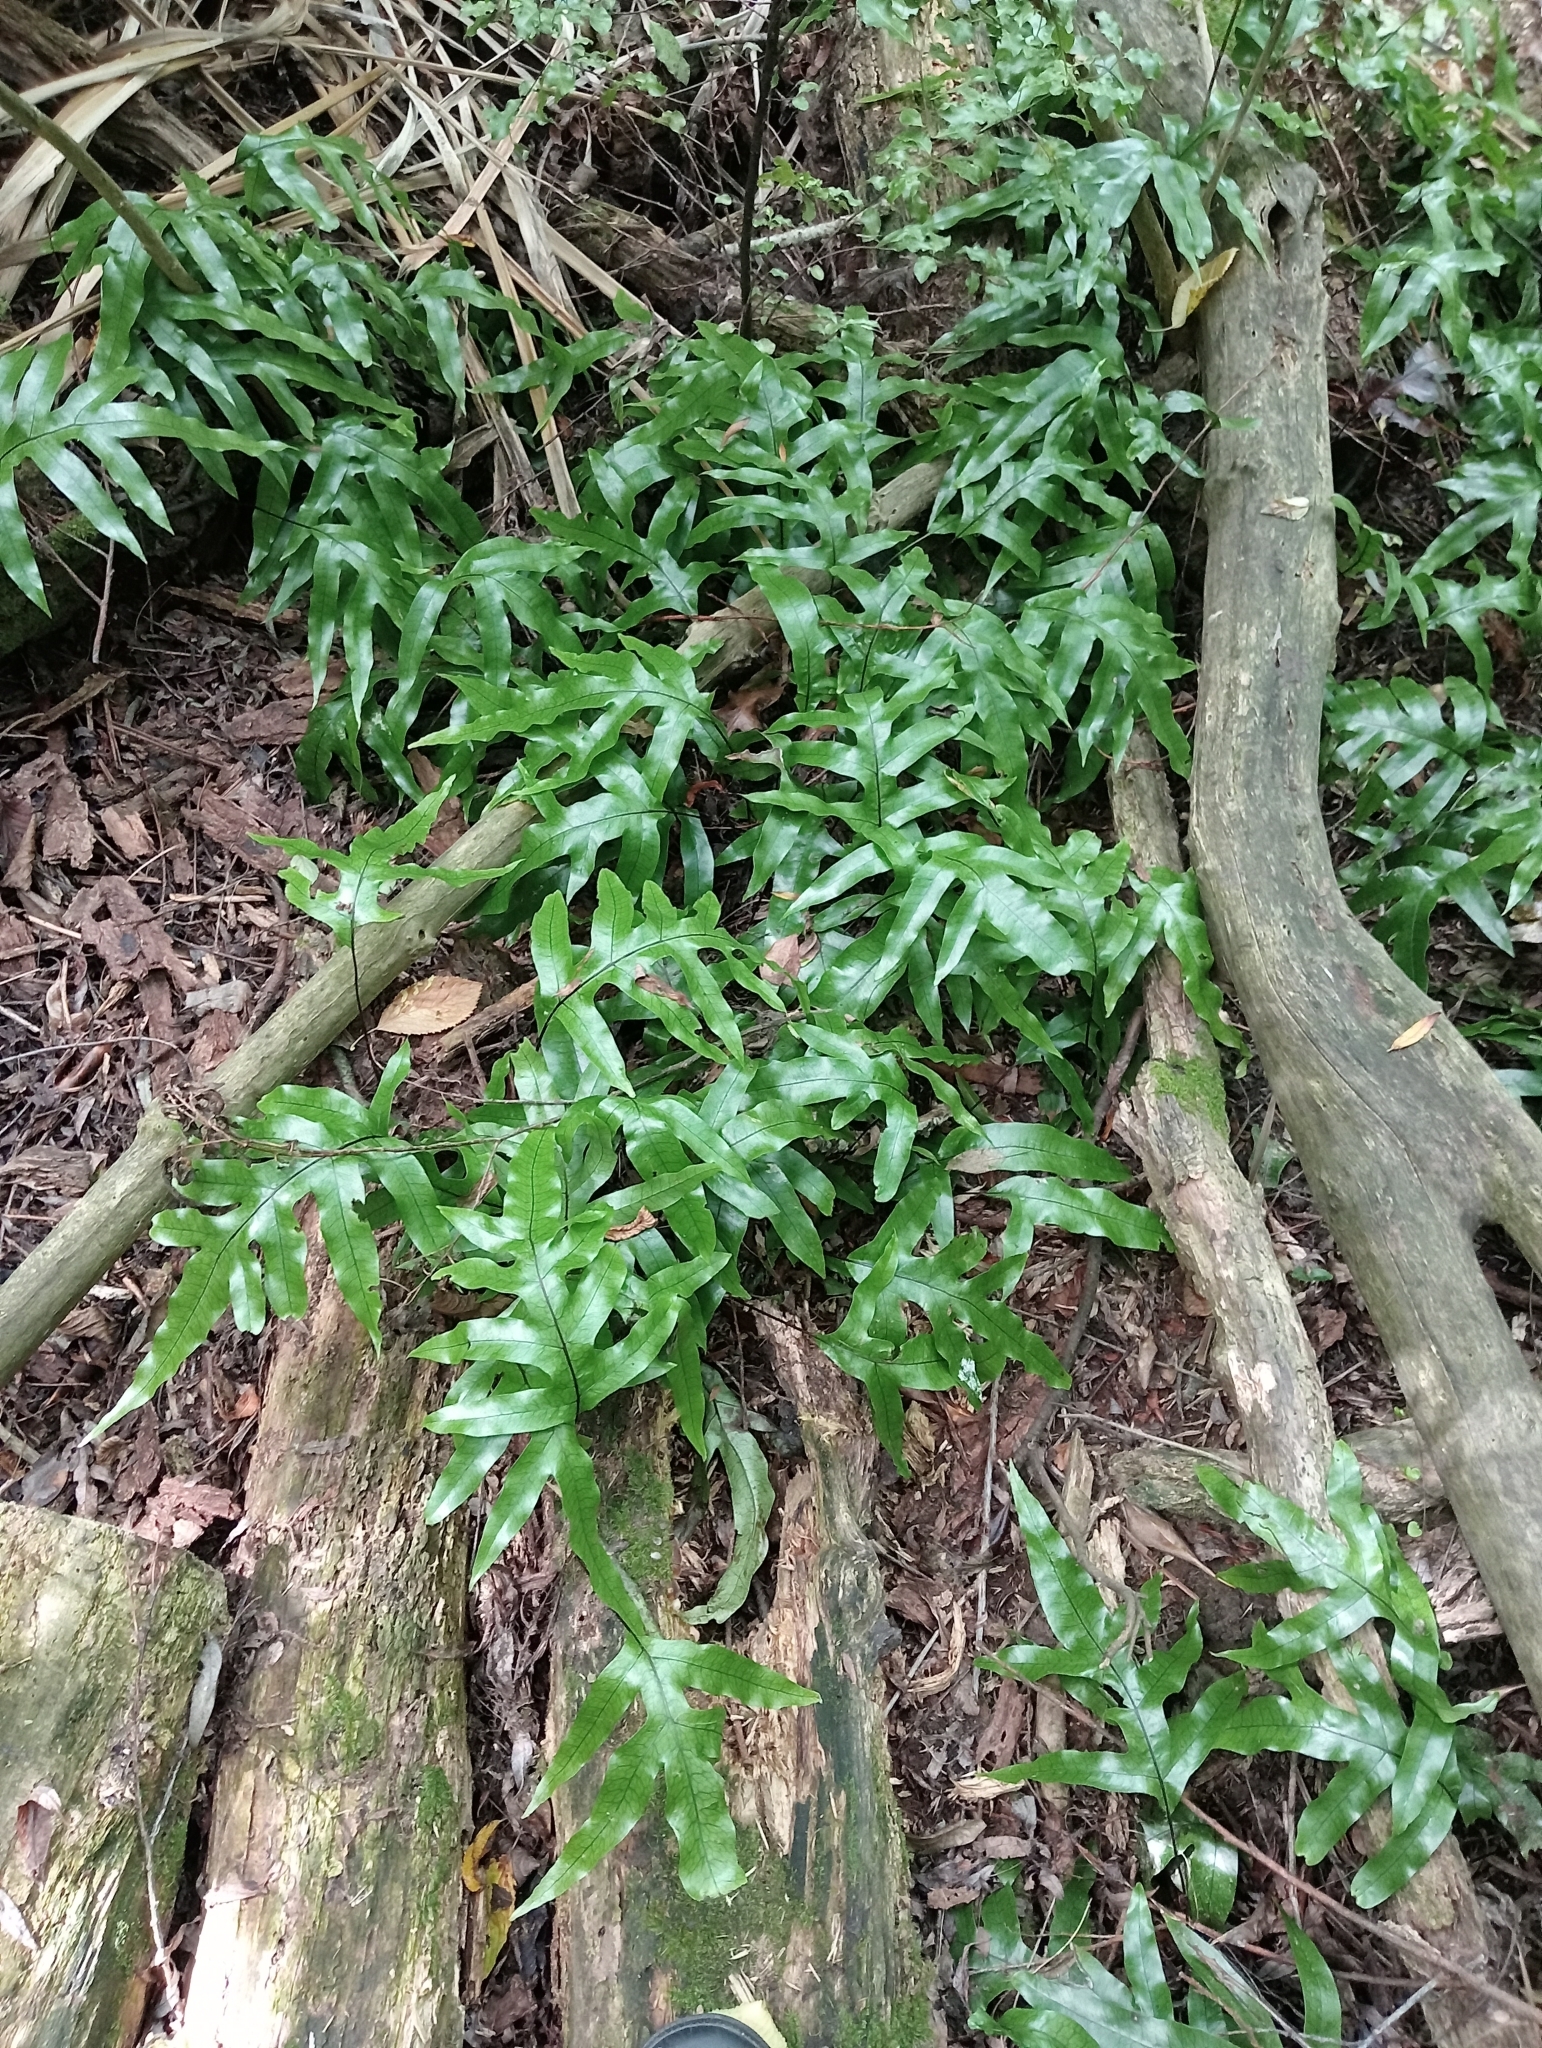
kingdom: Plantae
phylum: Tracheophyta
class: Polypodiopsida
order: Polypodiales
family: Polypodiaceae
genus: Lecanopteris
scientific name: Lecanopteris pustulata
